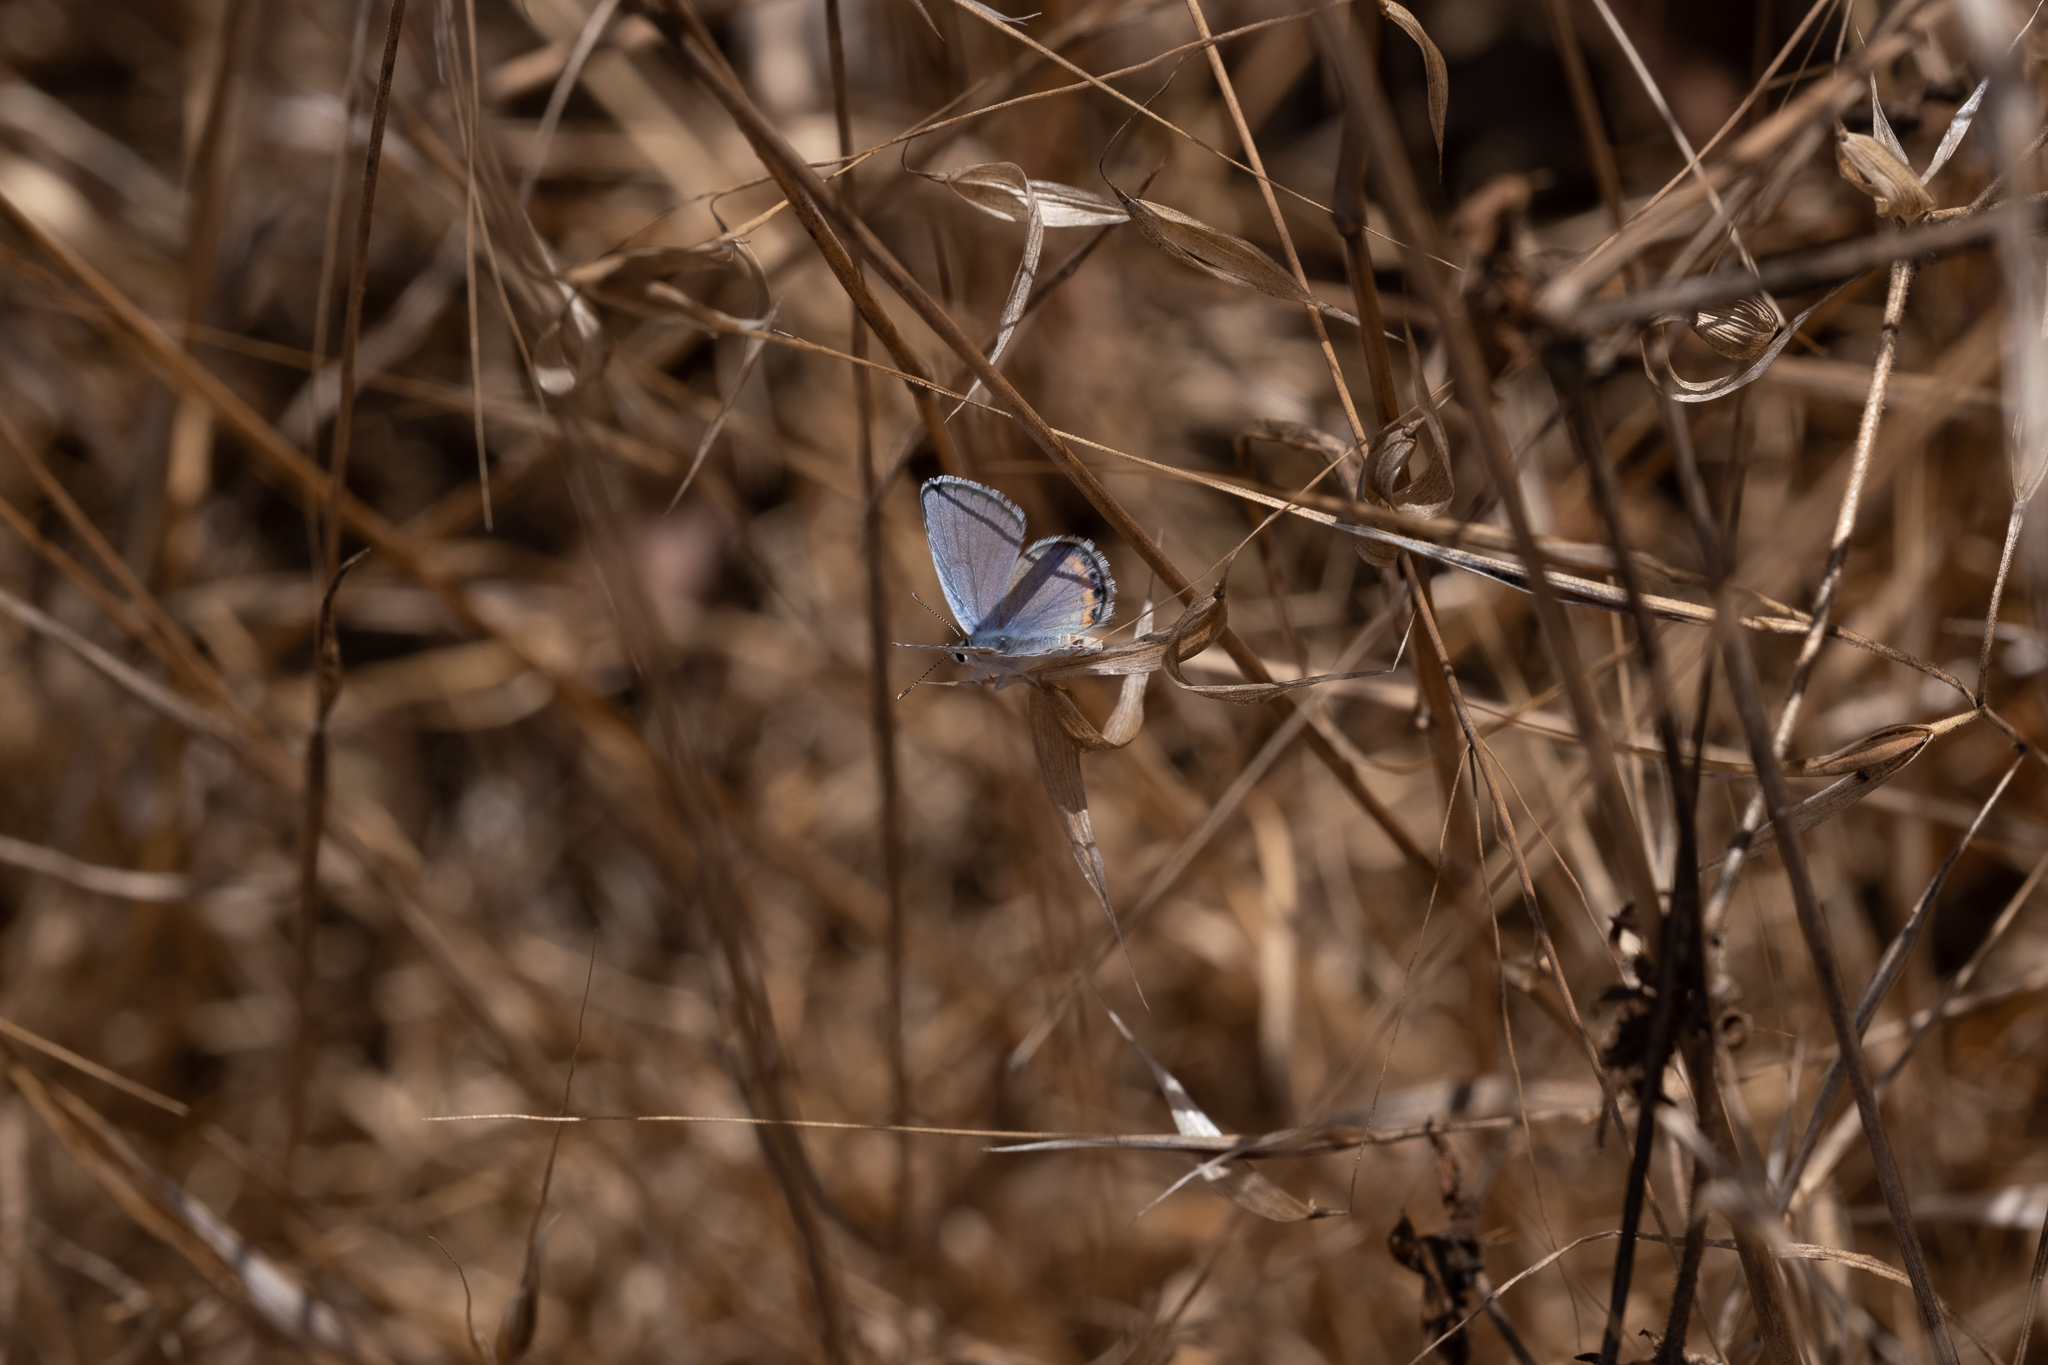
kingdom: Animalia
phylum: Arthropoda
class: Insecta
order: Lepidoptera
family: Lycaenidae
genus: Icaricia
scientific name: Icaricia acmon
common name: Acmon blue
